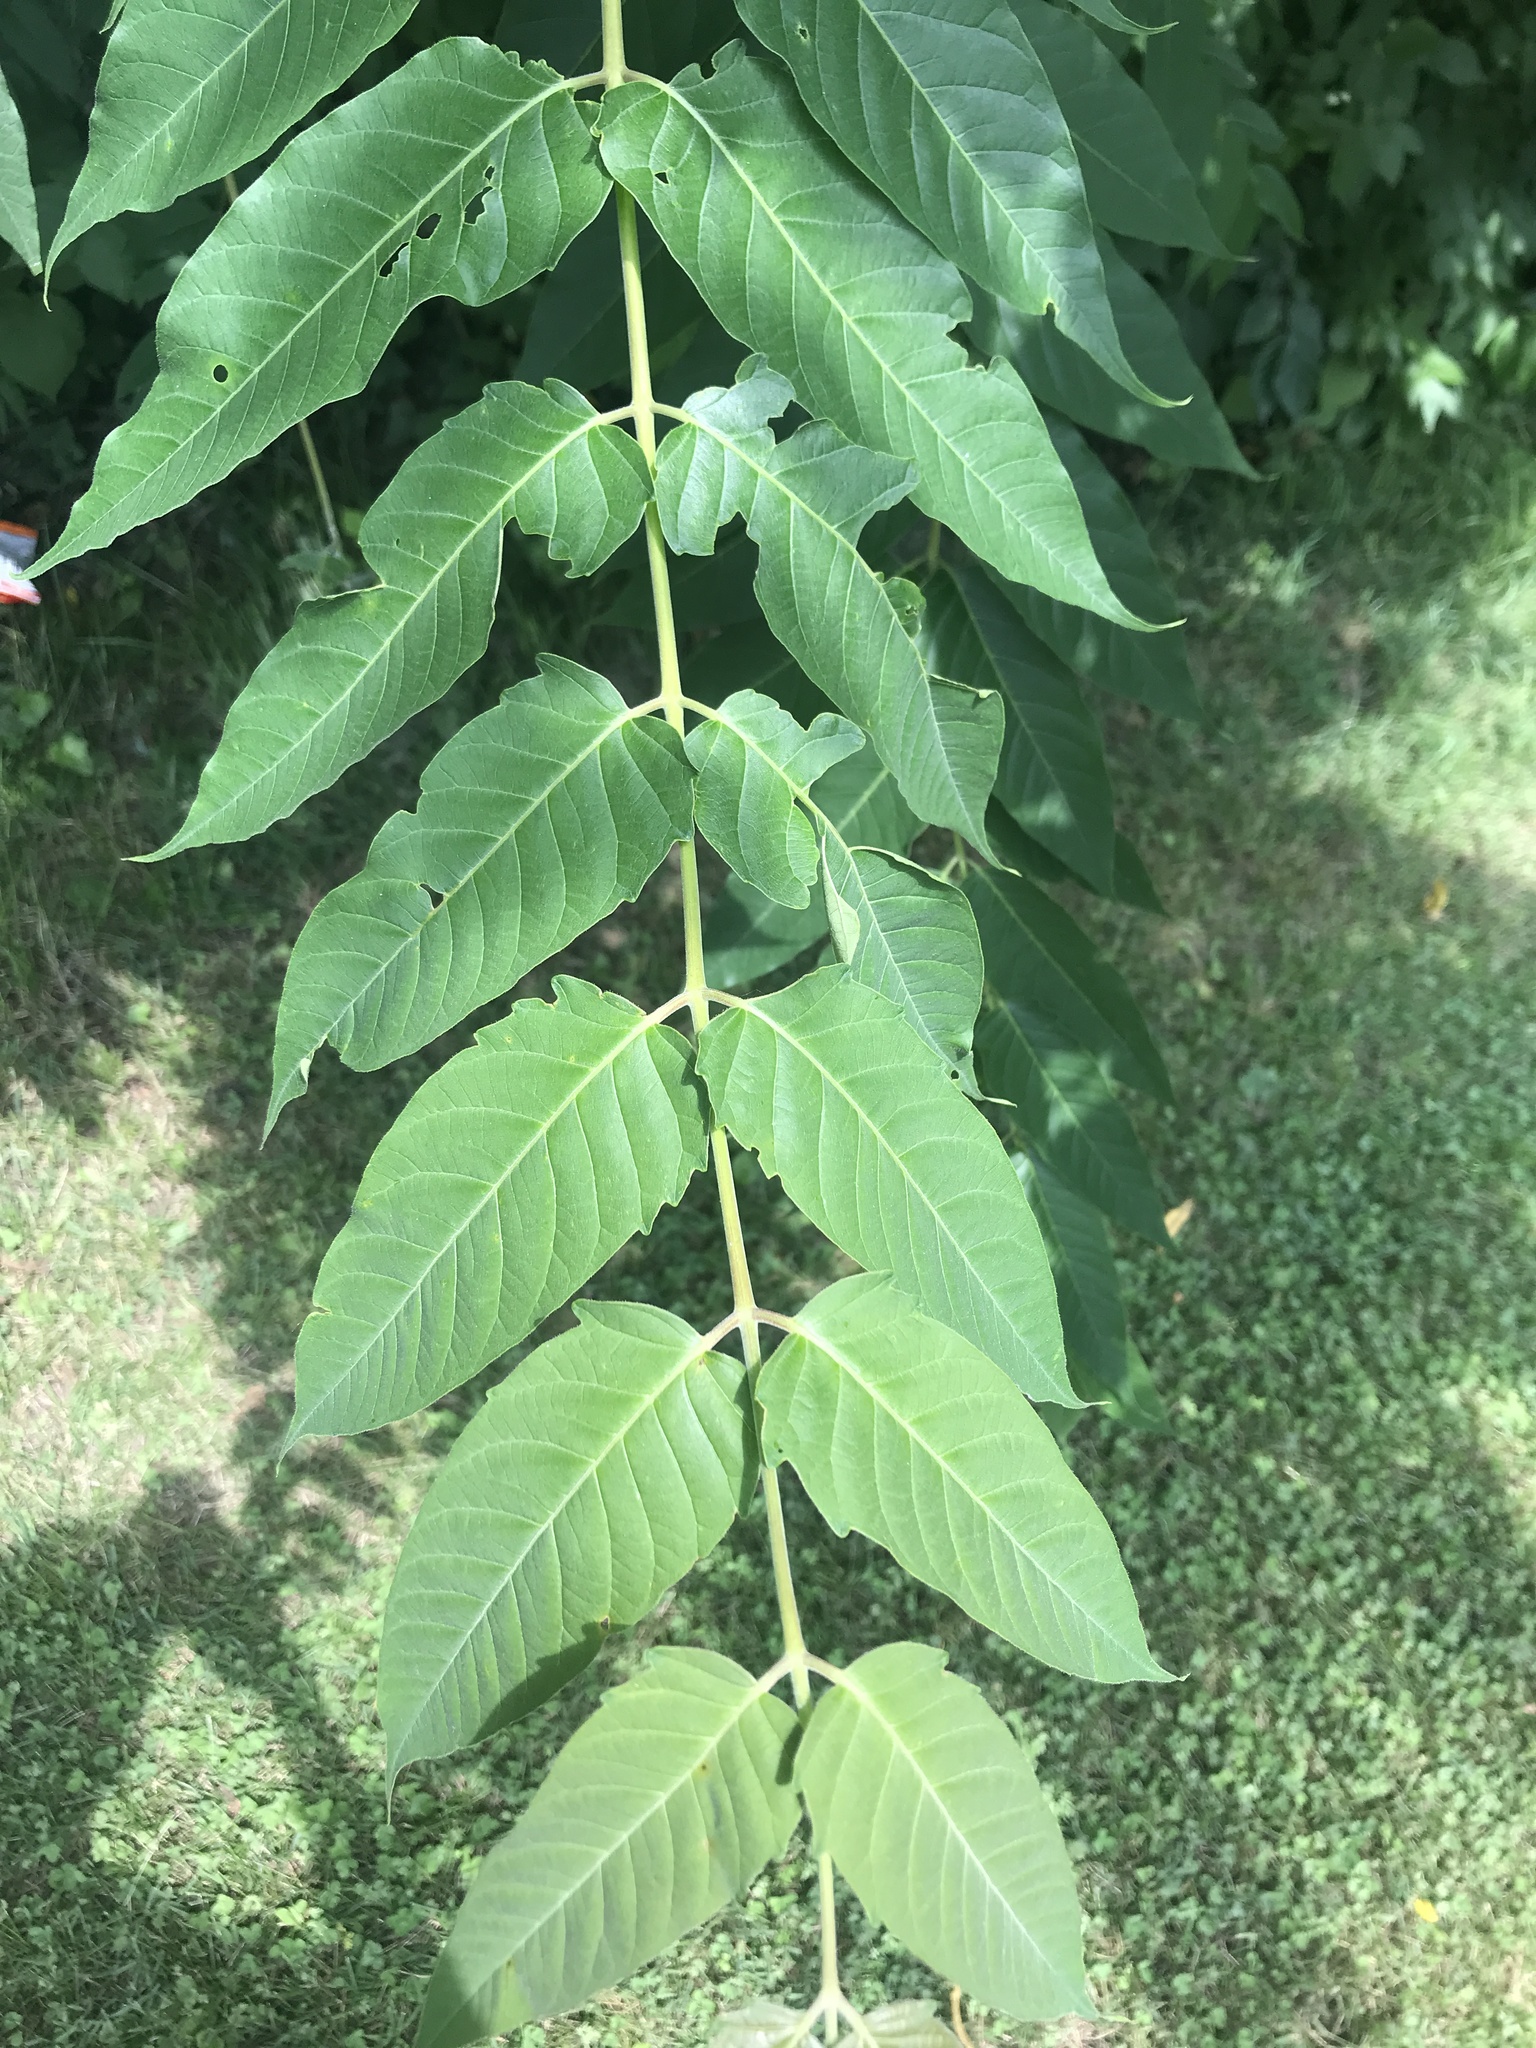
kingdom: Plantae
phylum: Tracheophyta
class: Magnoliopsida
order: Sapindales
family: Simaroubaceae
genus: Ailanthus
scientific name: Ailanthus altissima
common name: Tree-of-heaven
